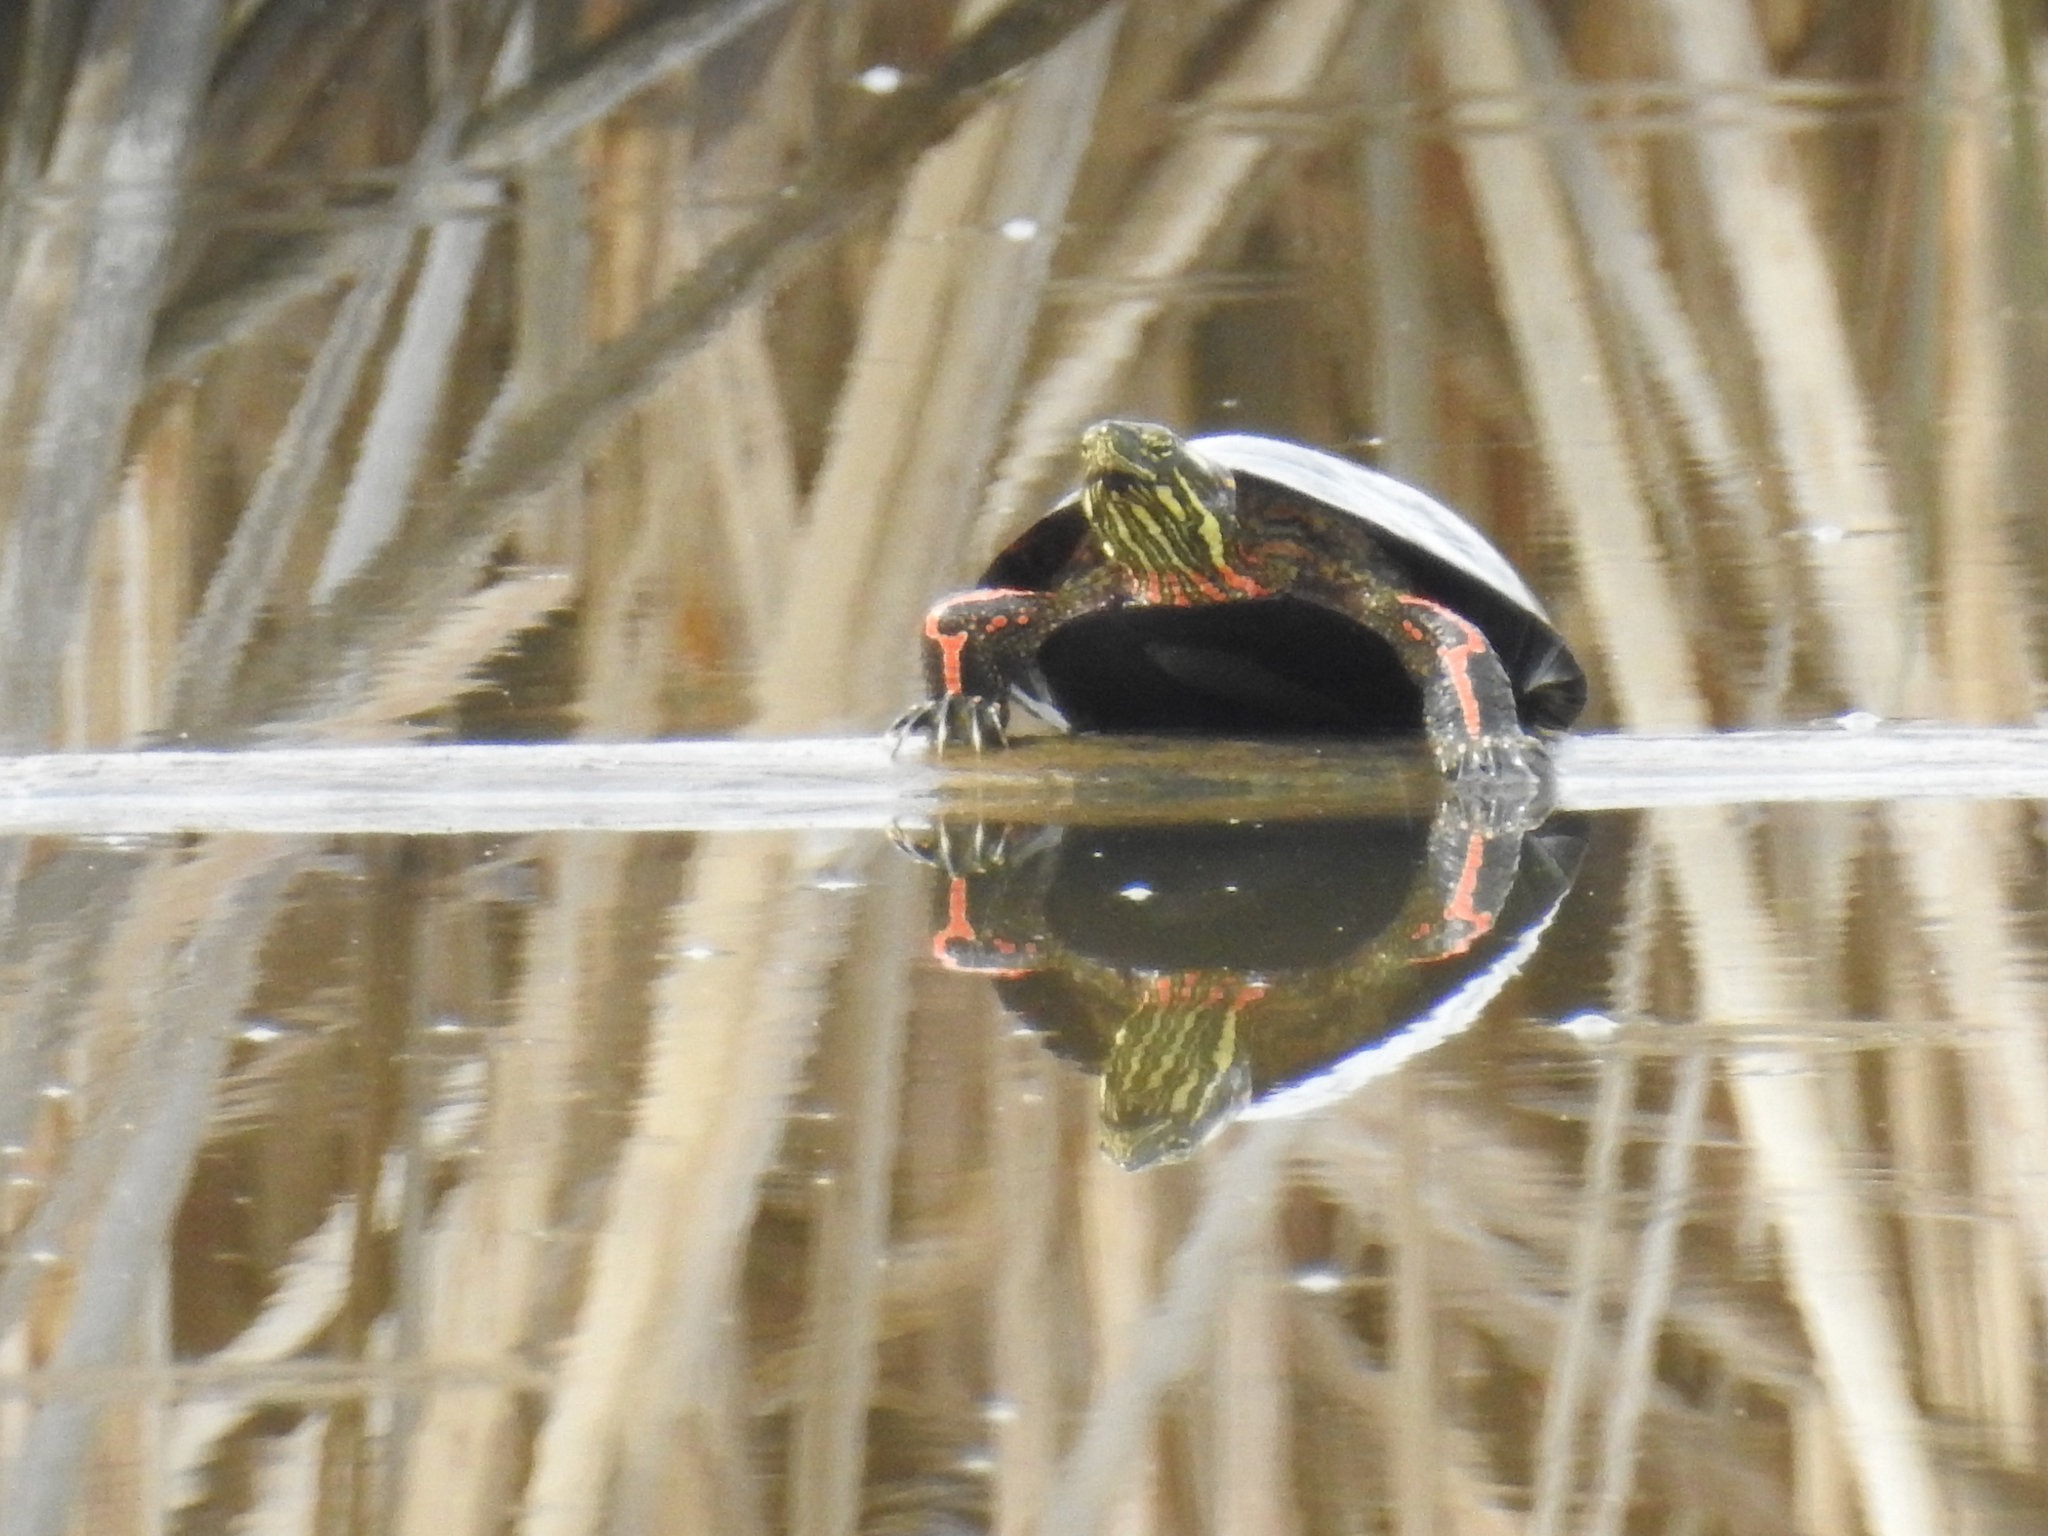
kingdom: Animalia
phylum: Chordata
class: Testudines
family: Emydidae
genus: Chrysemys
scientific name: Chrysemys picta
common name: Painted turtle
